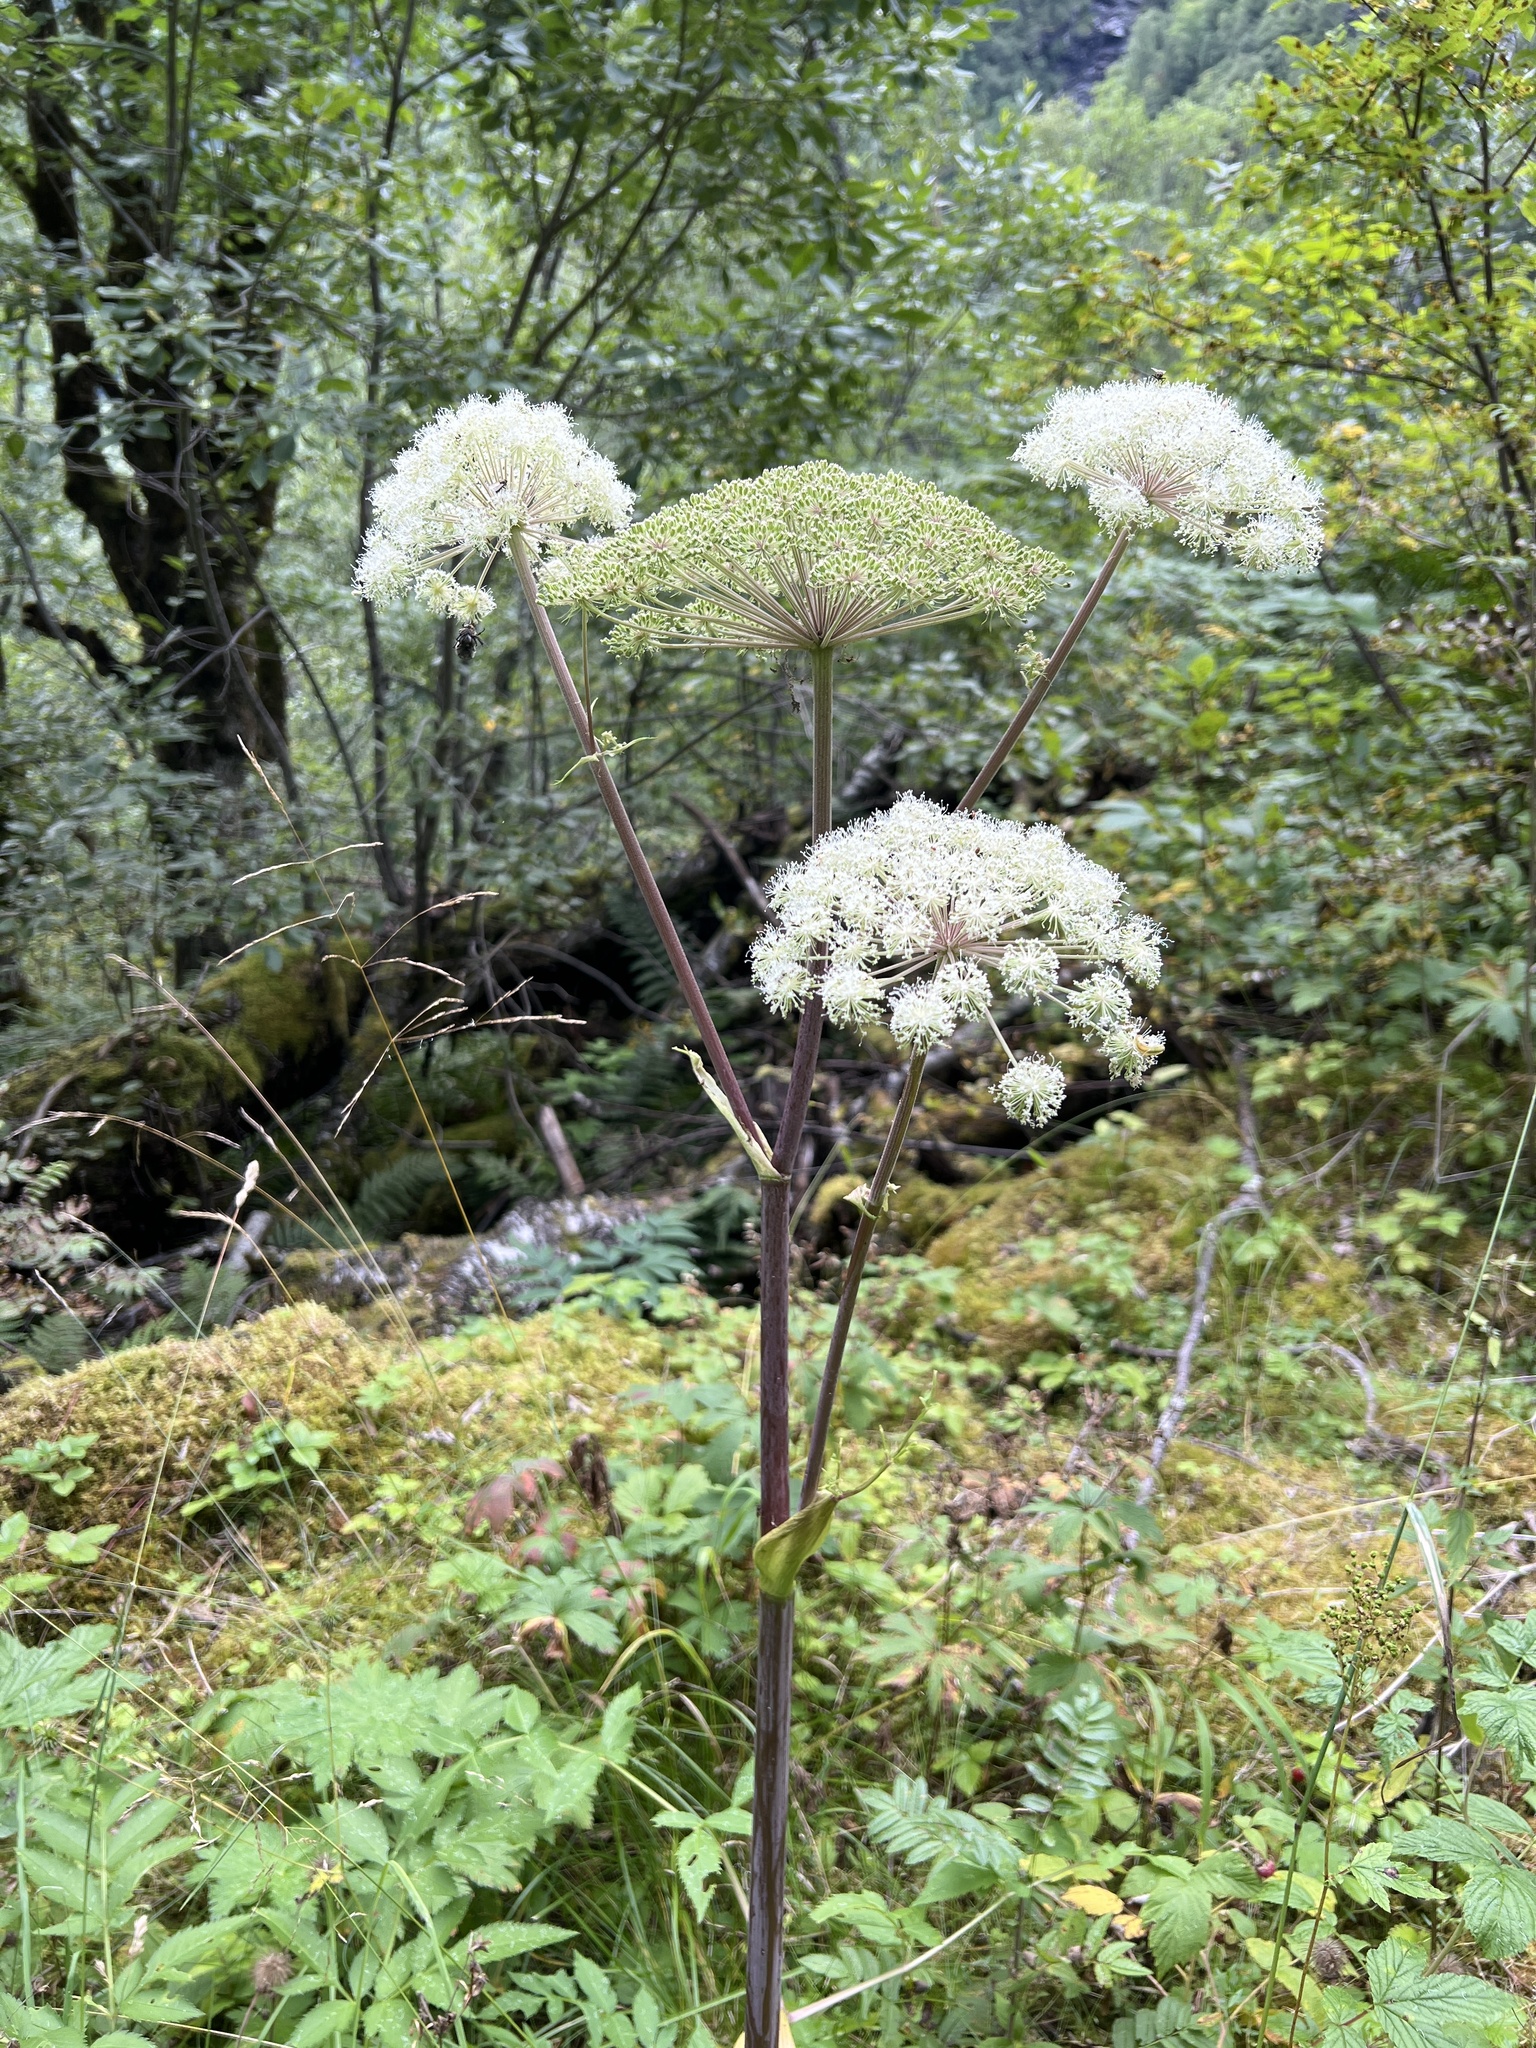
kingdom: Plantae
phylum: Tracheophyta
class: Magnoliopsida
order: Apiales
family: Apiaceae
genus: Angelica
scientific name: Angelica sylvestris
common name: Wild angelica
